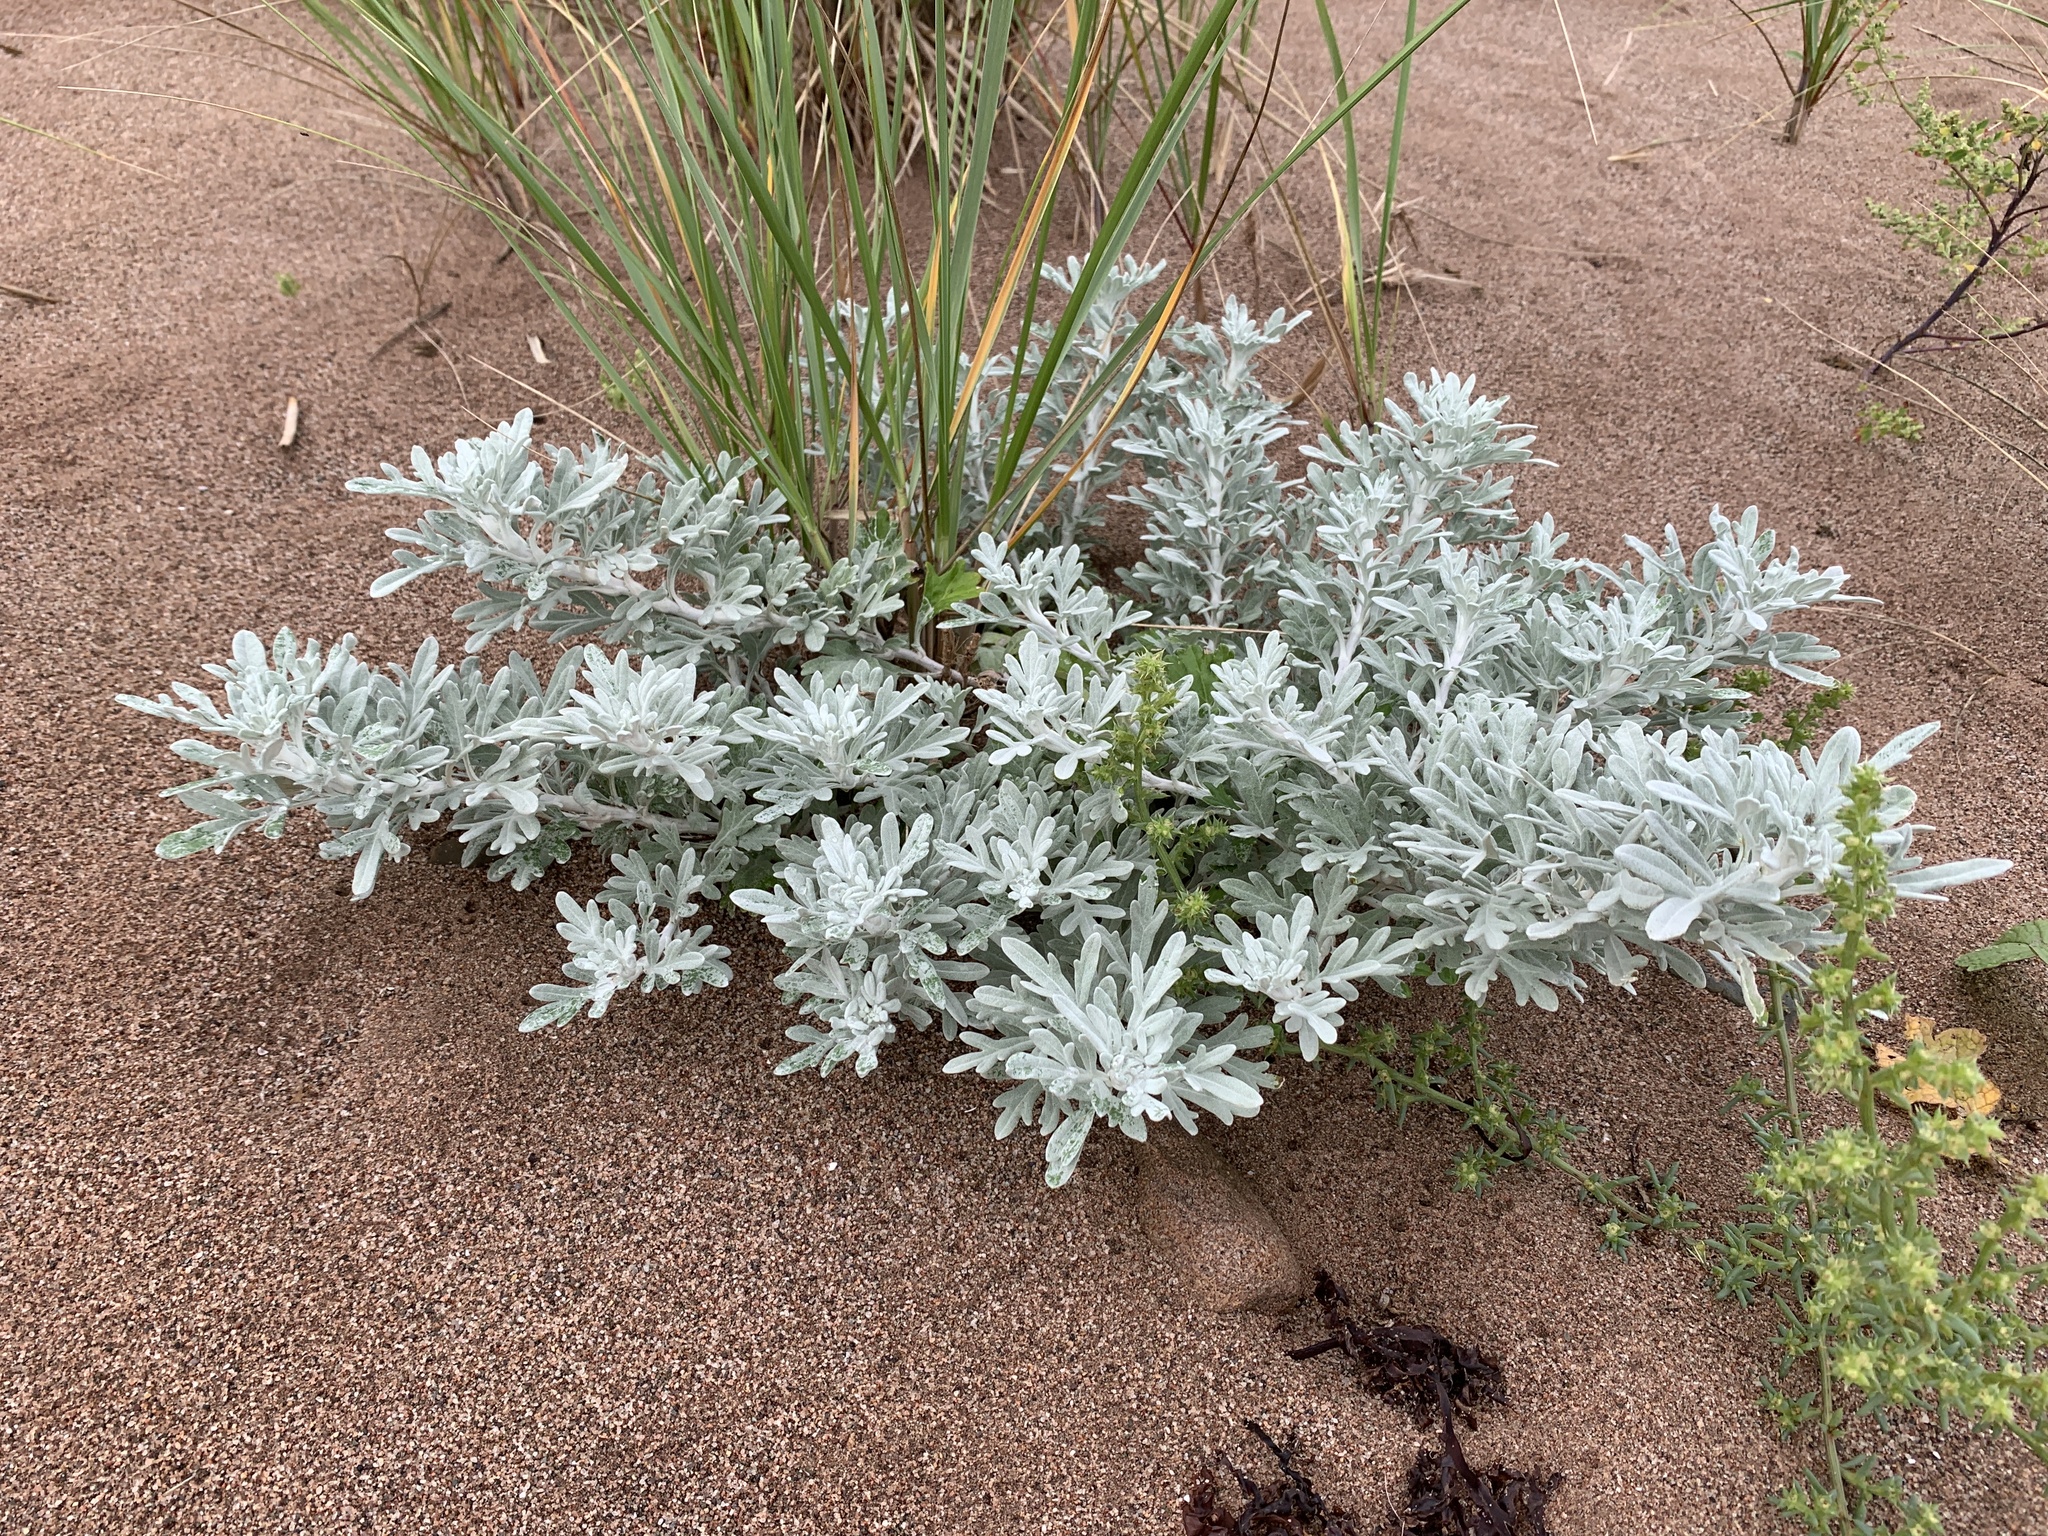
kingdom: Plantae
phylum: Tracheophyta
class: Magnoliopsida
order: Asterales
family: Asteraceae
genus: Artemisia
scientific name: Artemisia stelleriana
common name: Beach wormwood
